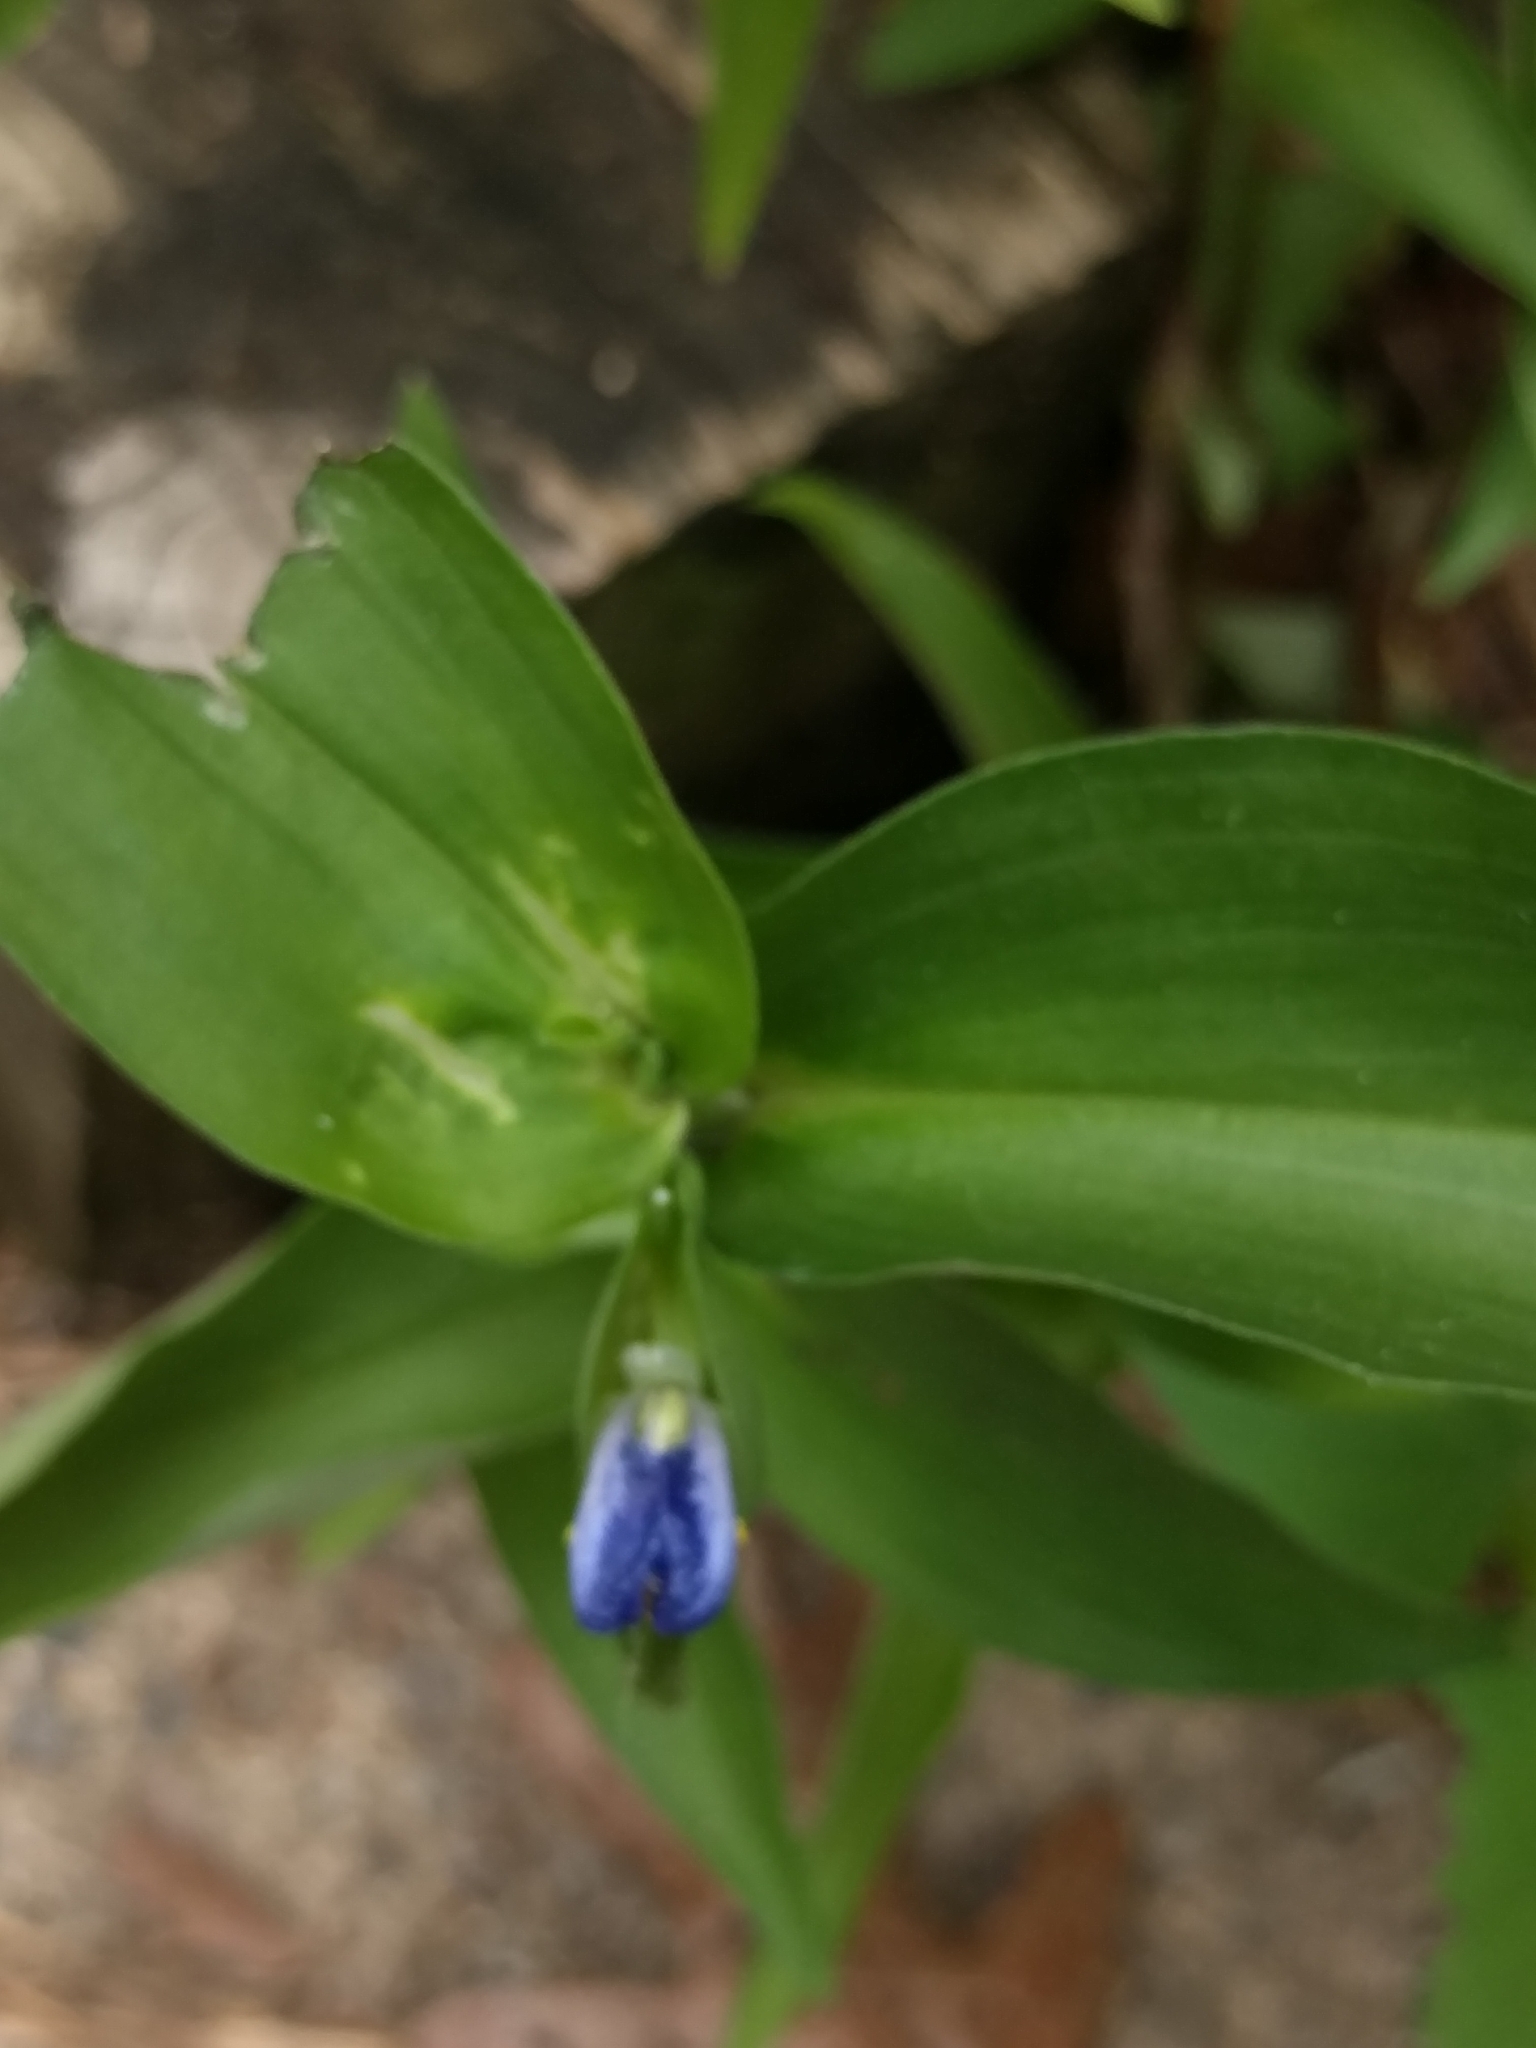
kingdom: Plantae
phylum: Tracheophyta
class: Liliopsida
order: Commelinales
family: Commelinaceae
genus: Commelina
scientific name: Commelina communis
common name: Asiatic dayflower
